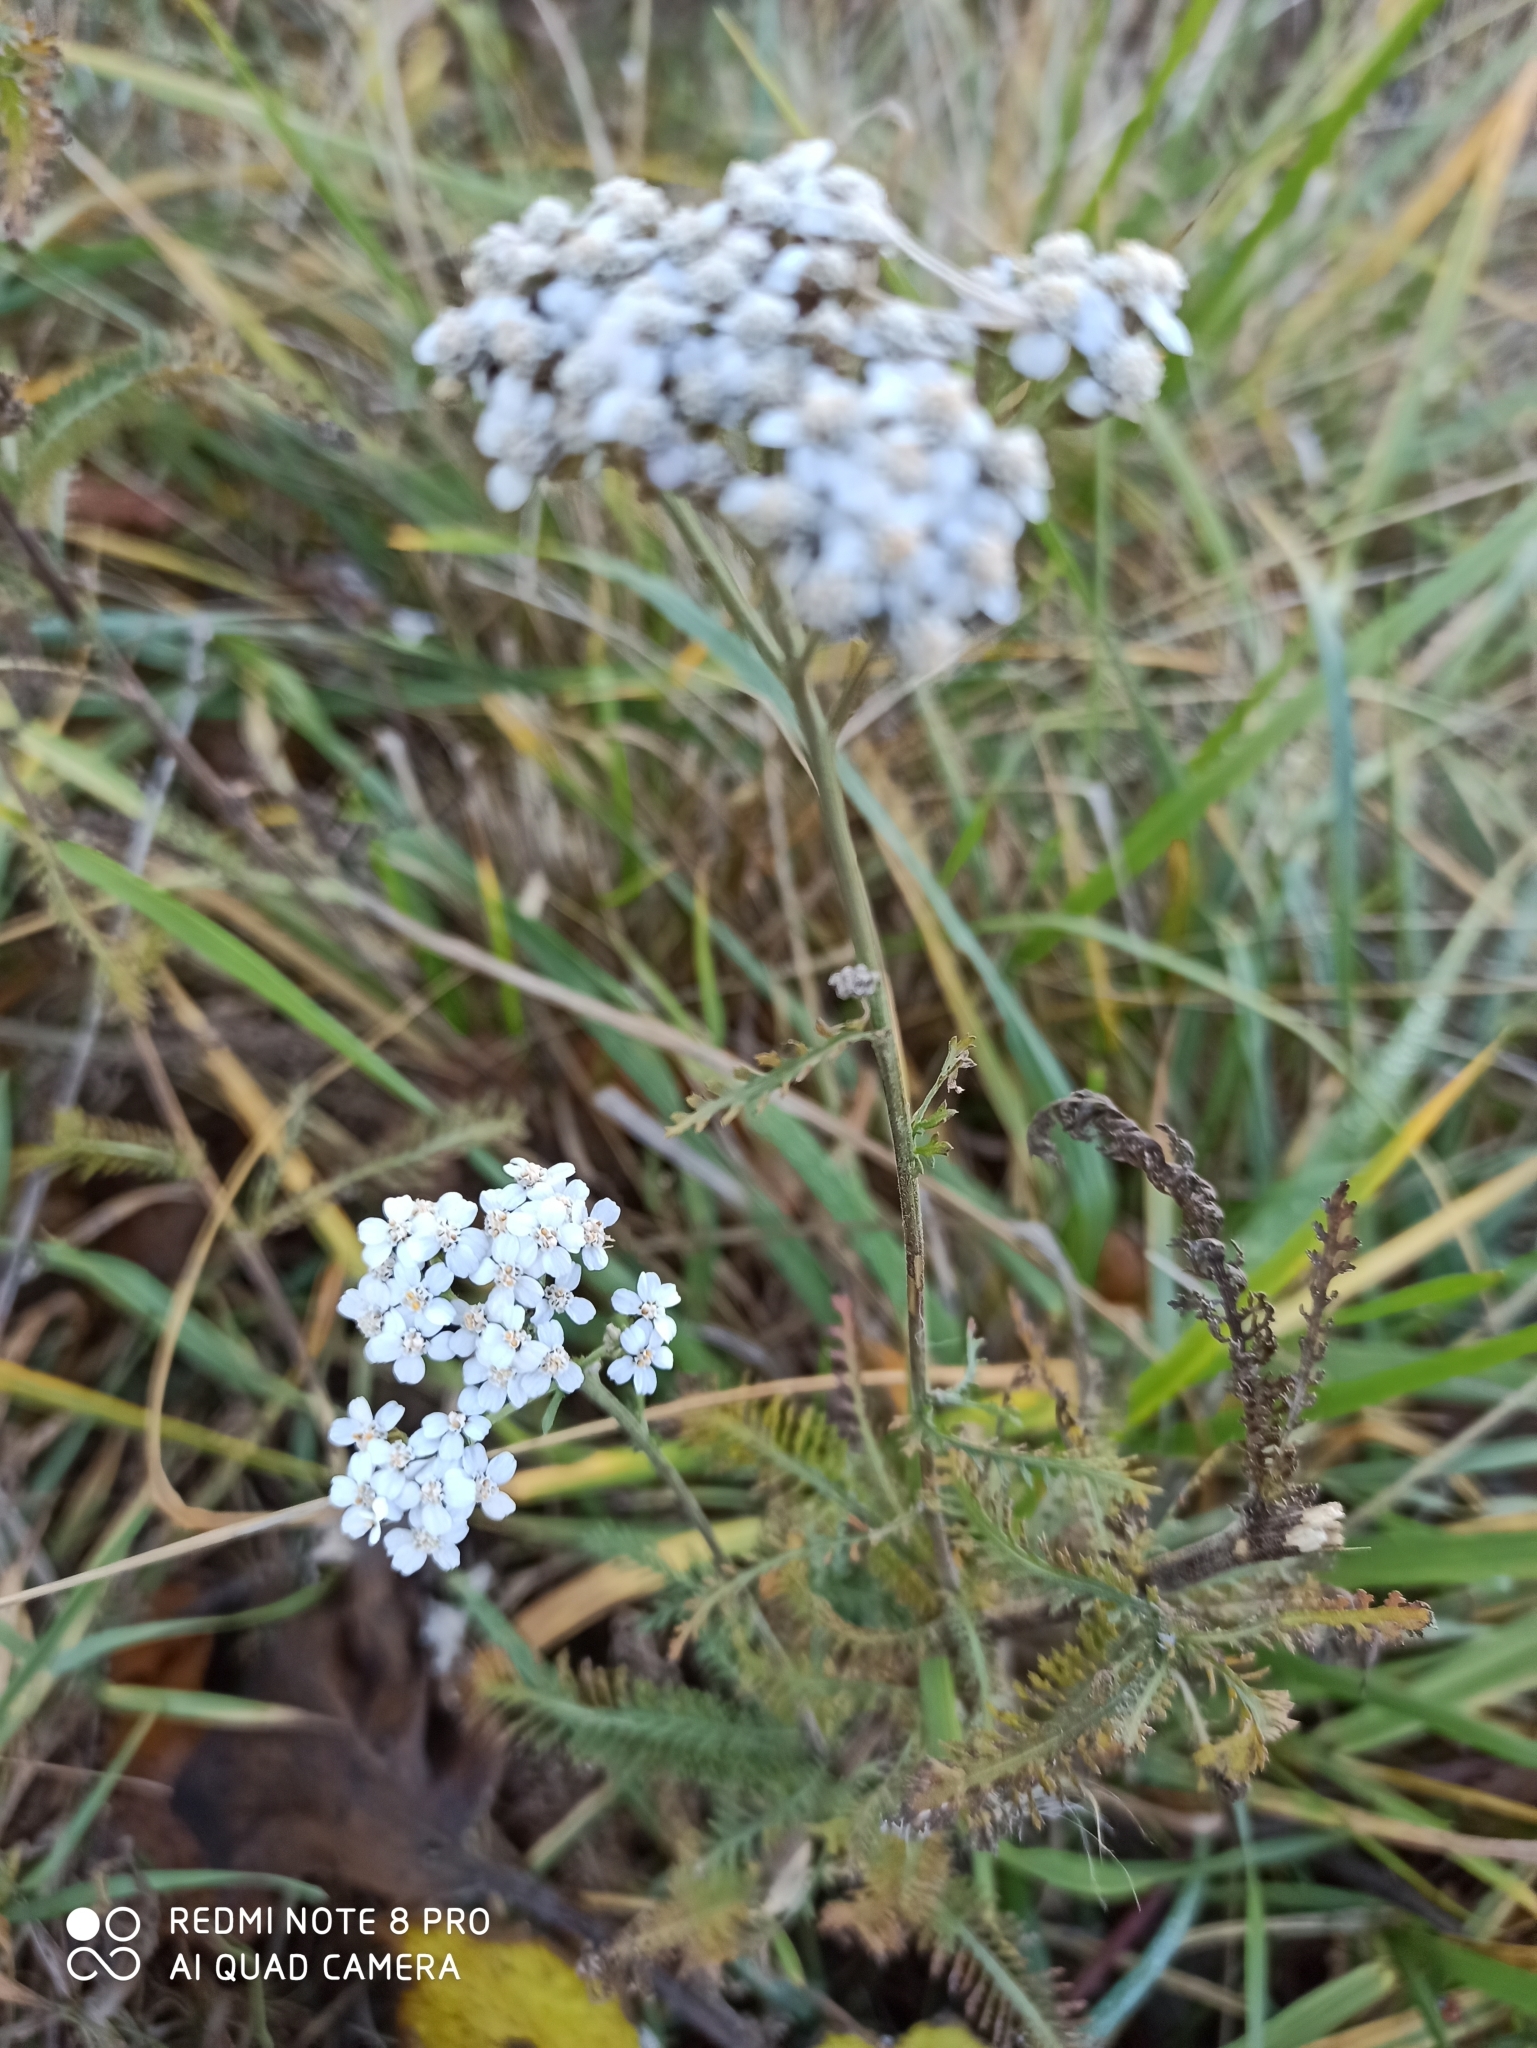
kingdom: Plantae
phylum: Tracheophyta
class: Magnoliopsida
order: Asterales
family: Asteraceae
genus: Achillea
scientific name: Achillea millefolium
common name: Yarrow
